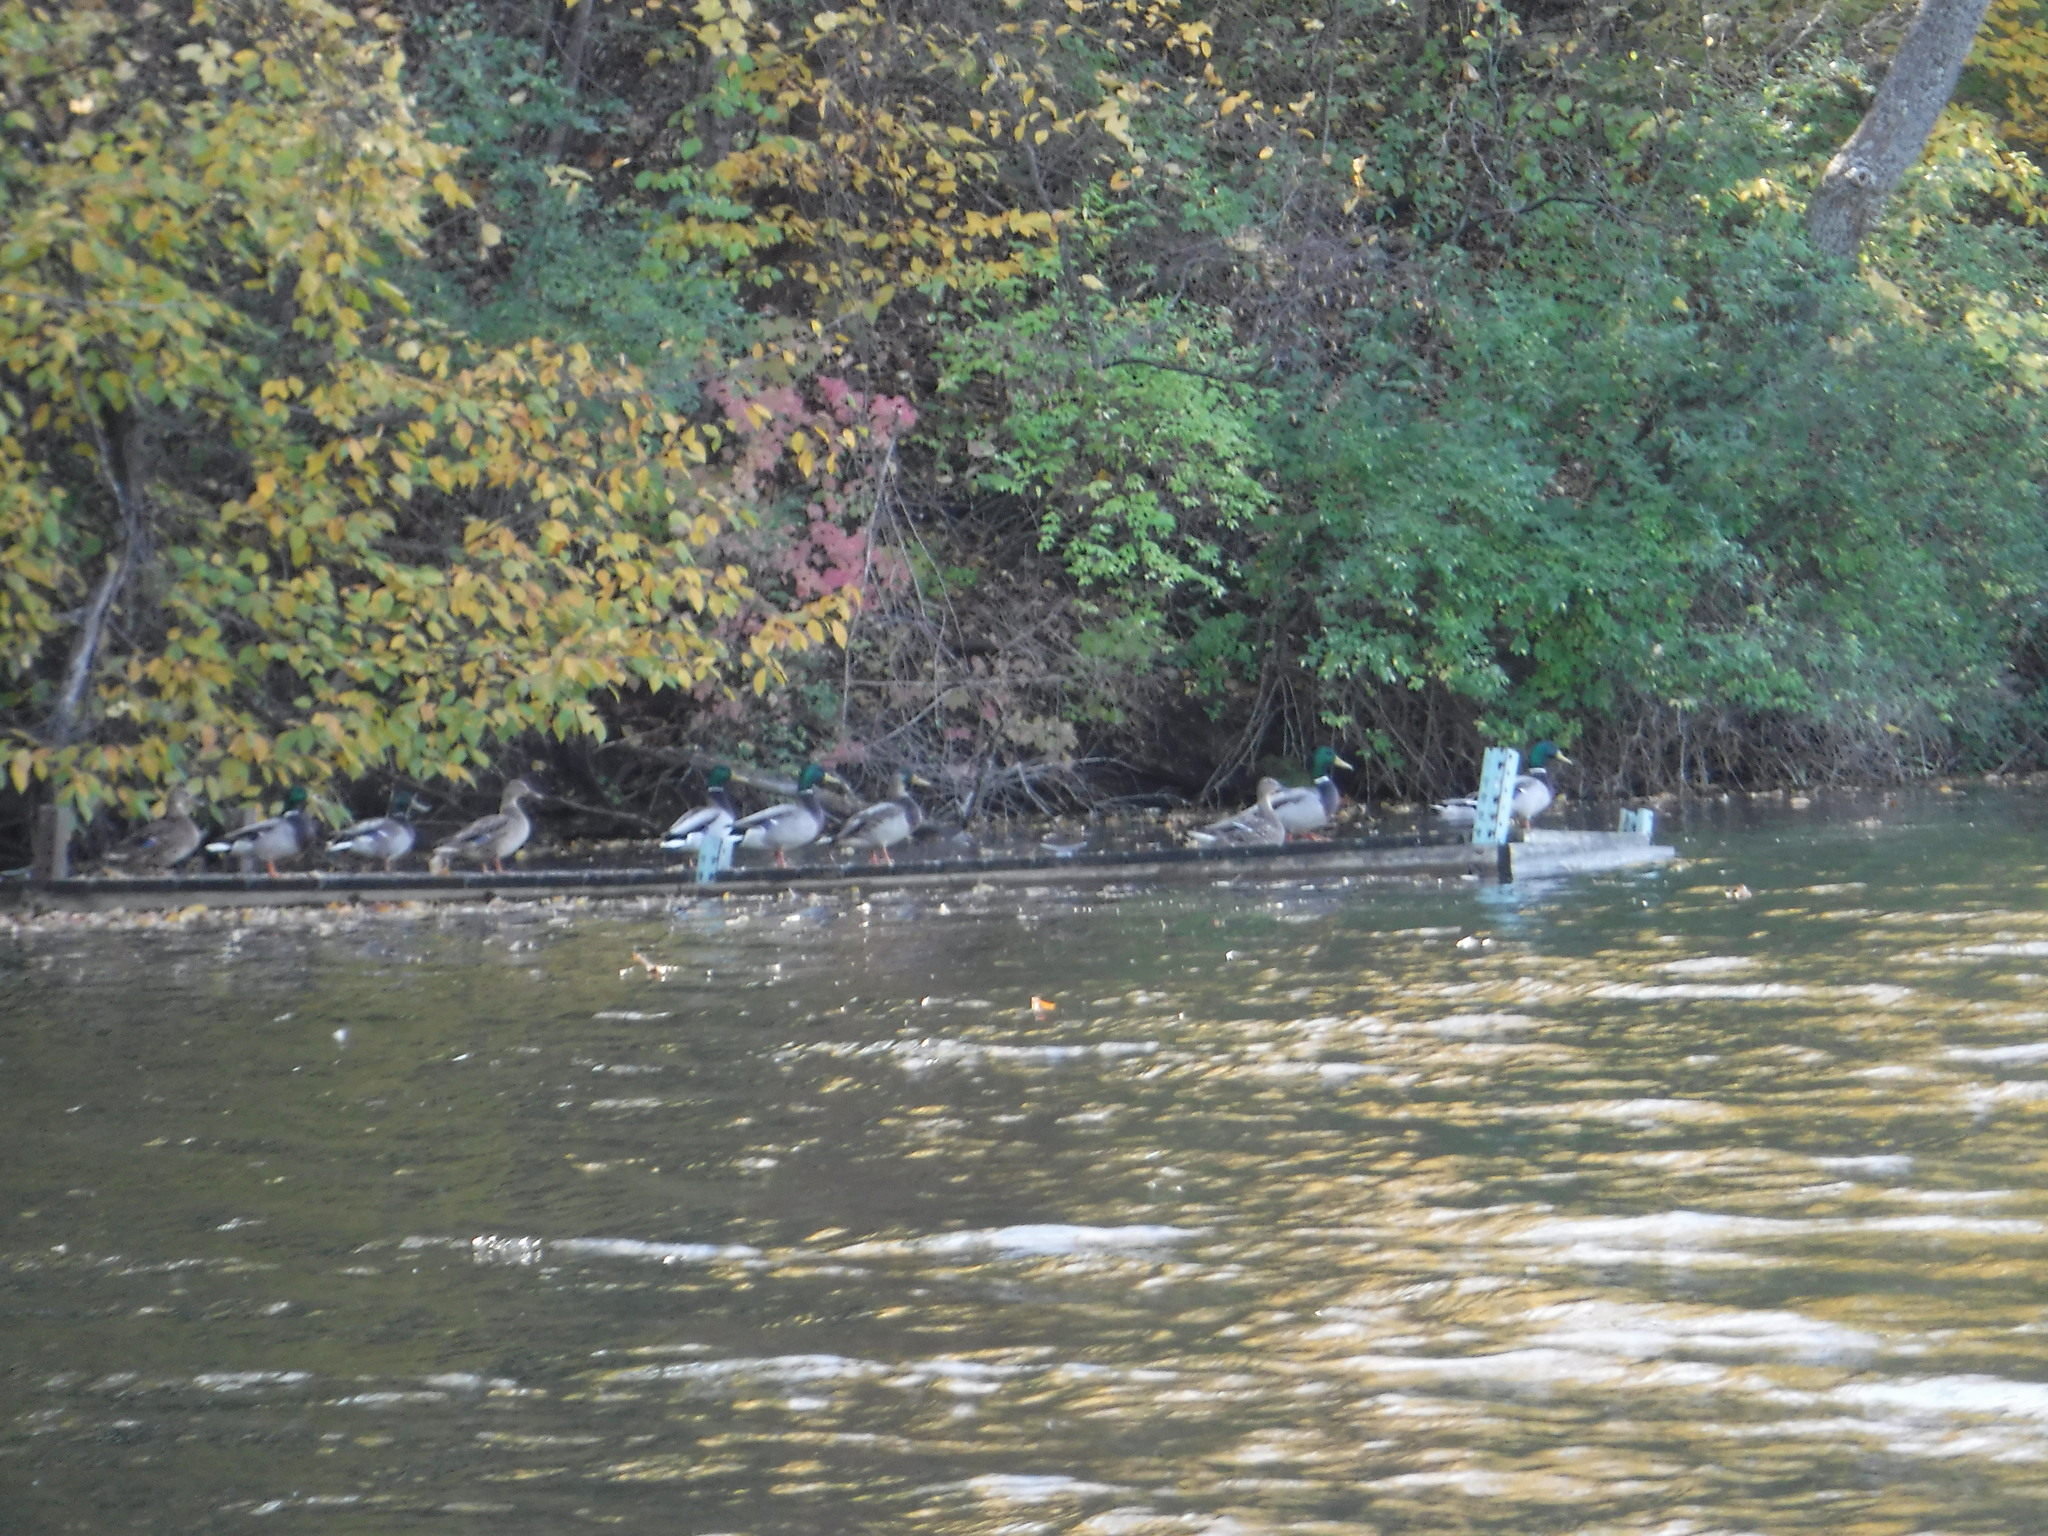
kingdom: Animalia
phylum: Chordata
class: Aves
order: Anseriformes
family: Anatidae
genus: Anas
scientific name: Anas platyrhynchos
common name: Mallard
